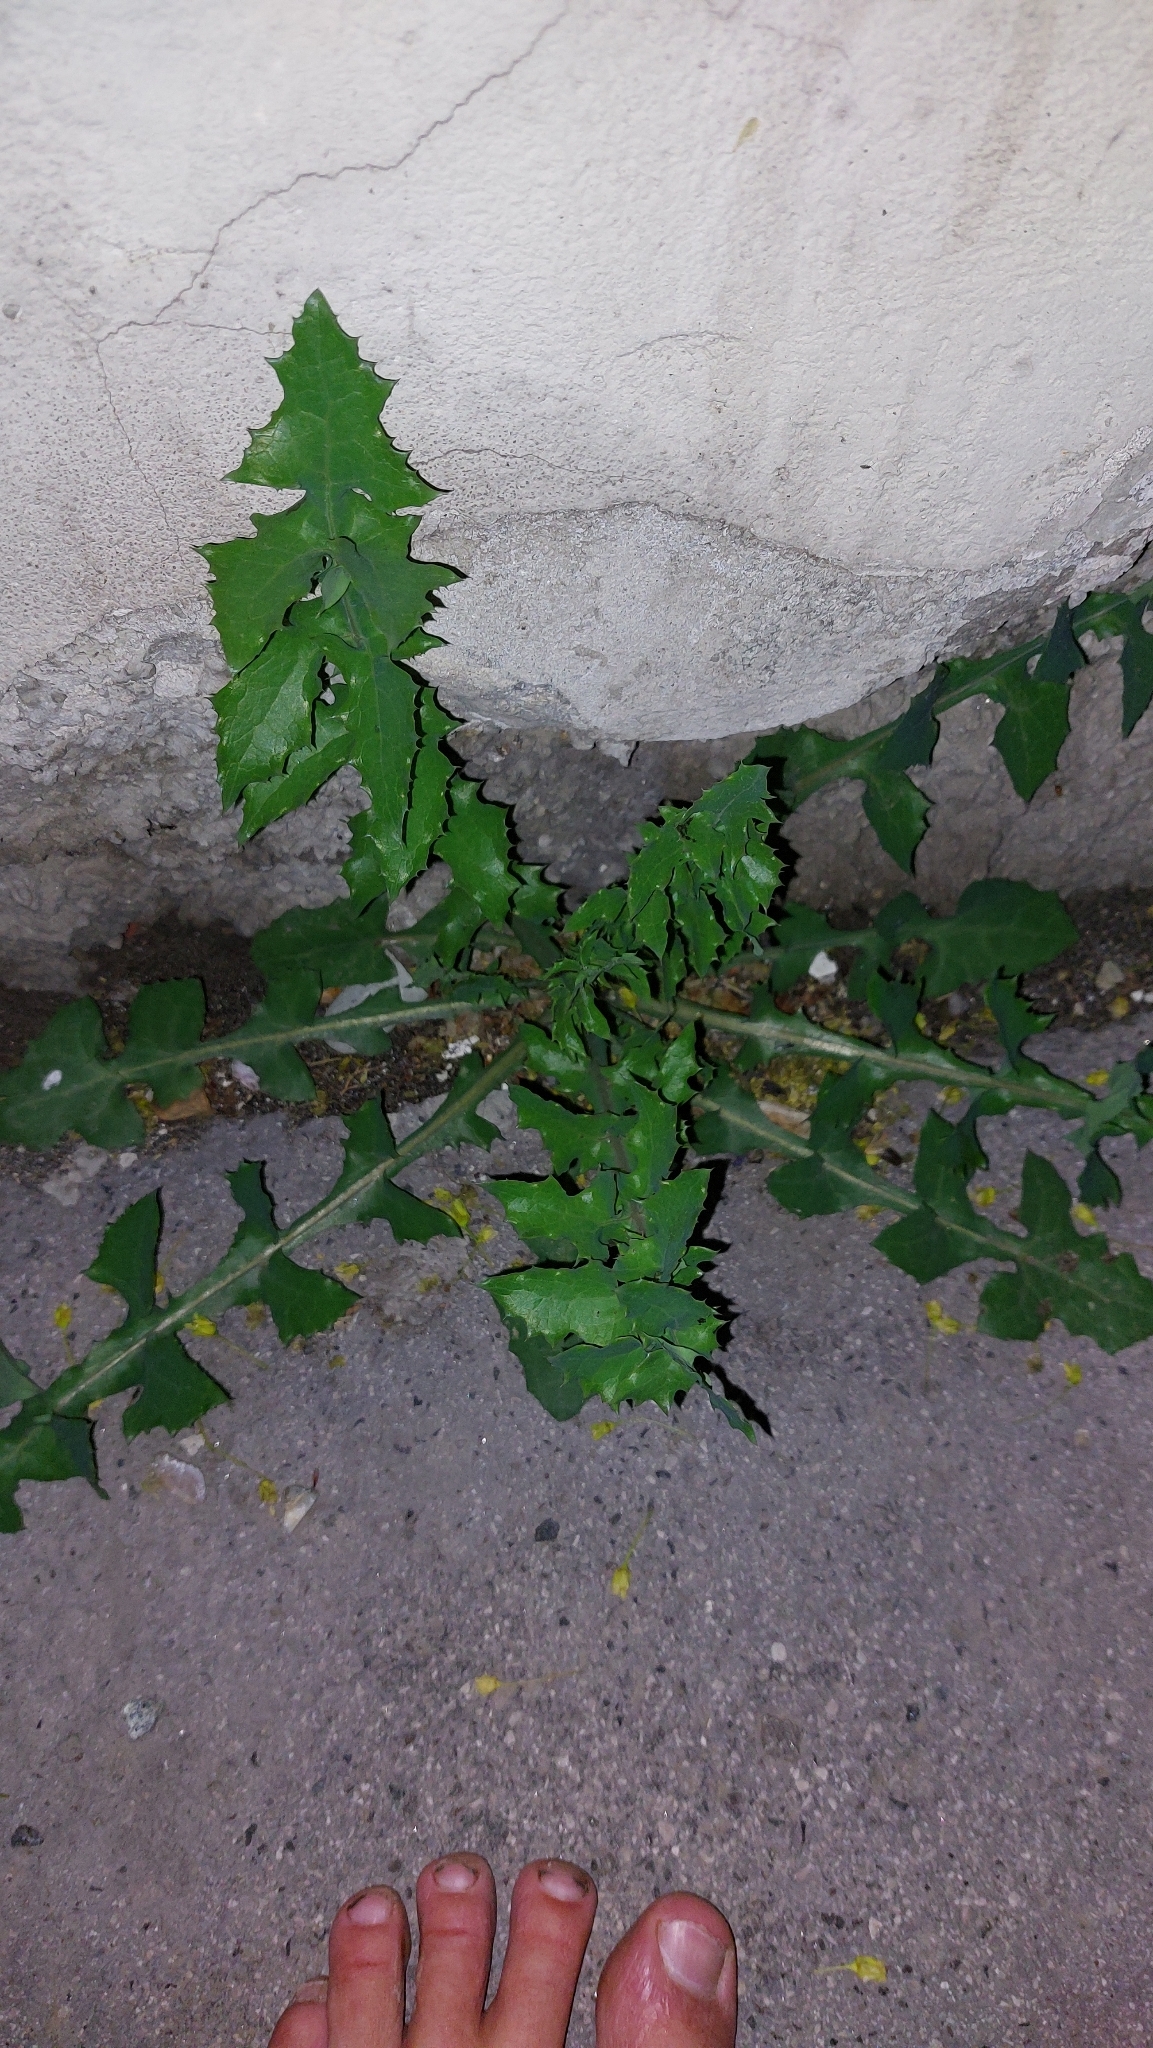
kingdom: Plantae
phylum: Tracheophyta
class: Magnoliopsida
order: Asterales
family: Asteraceae
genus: Sonchus
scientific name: Sonchus oleraceus
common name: Common sowthistle
